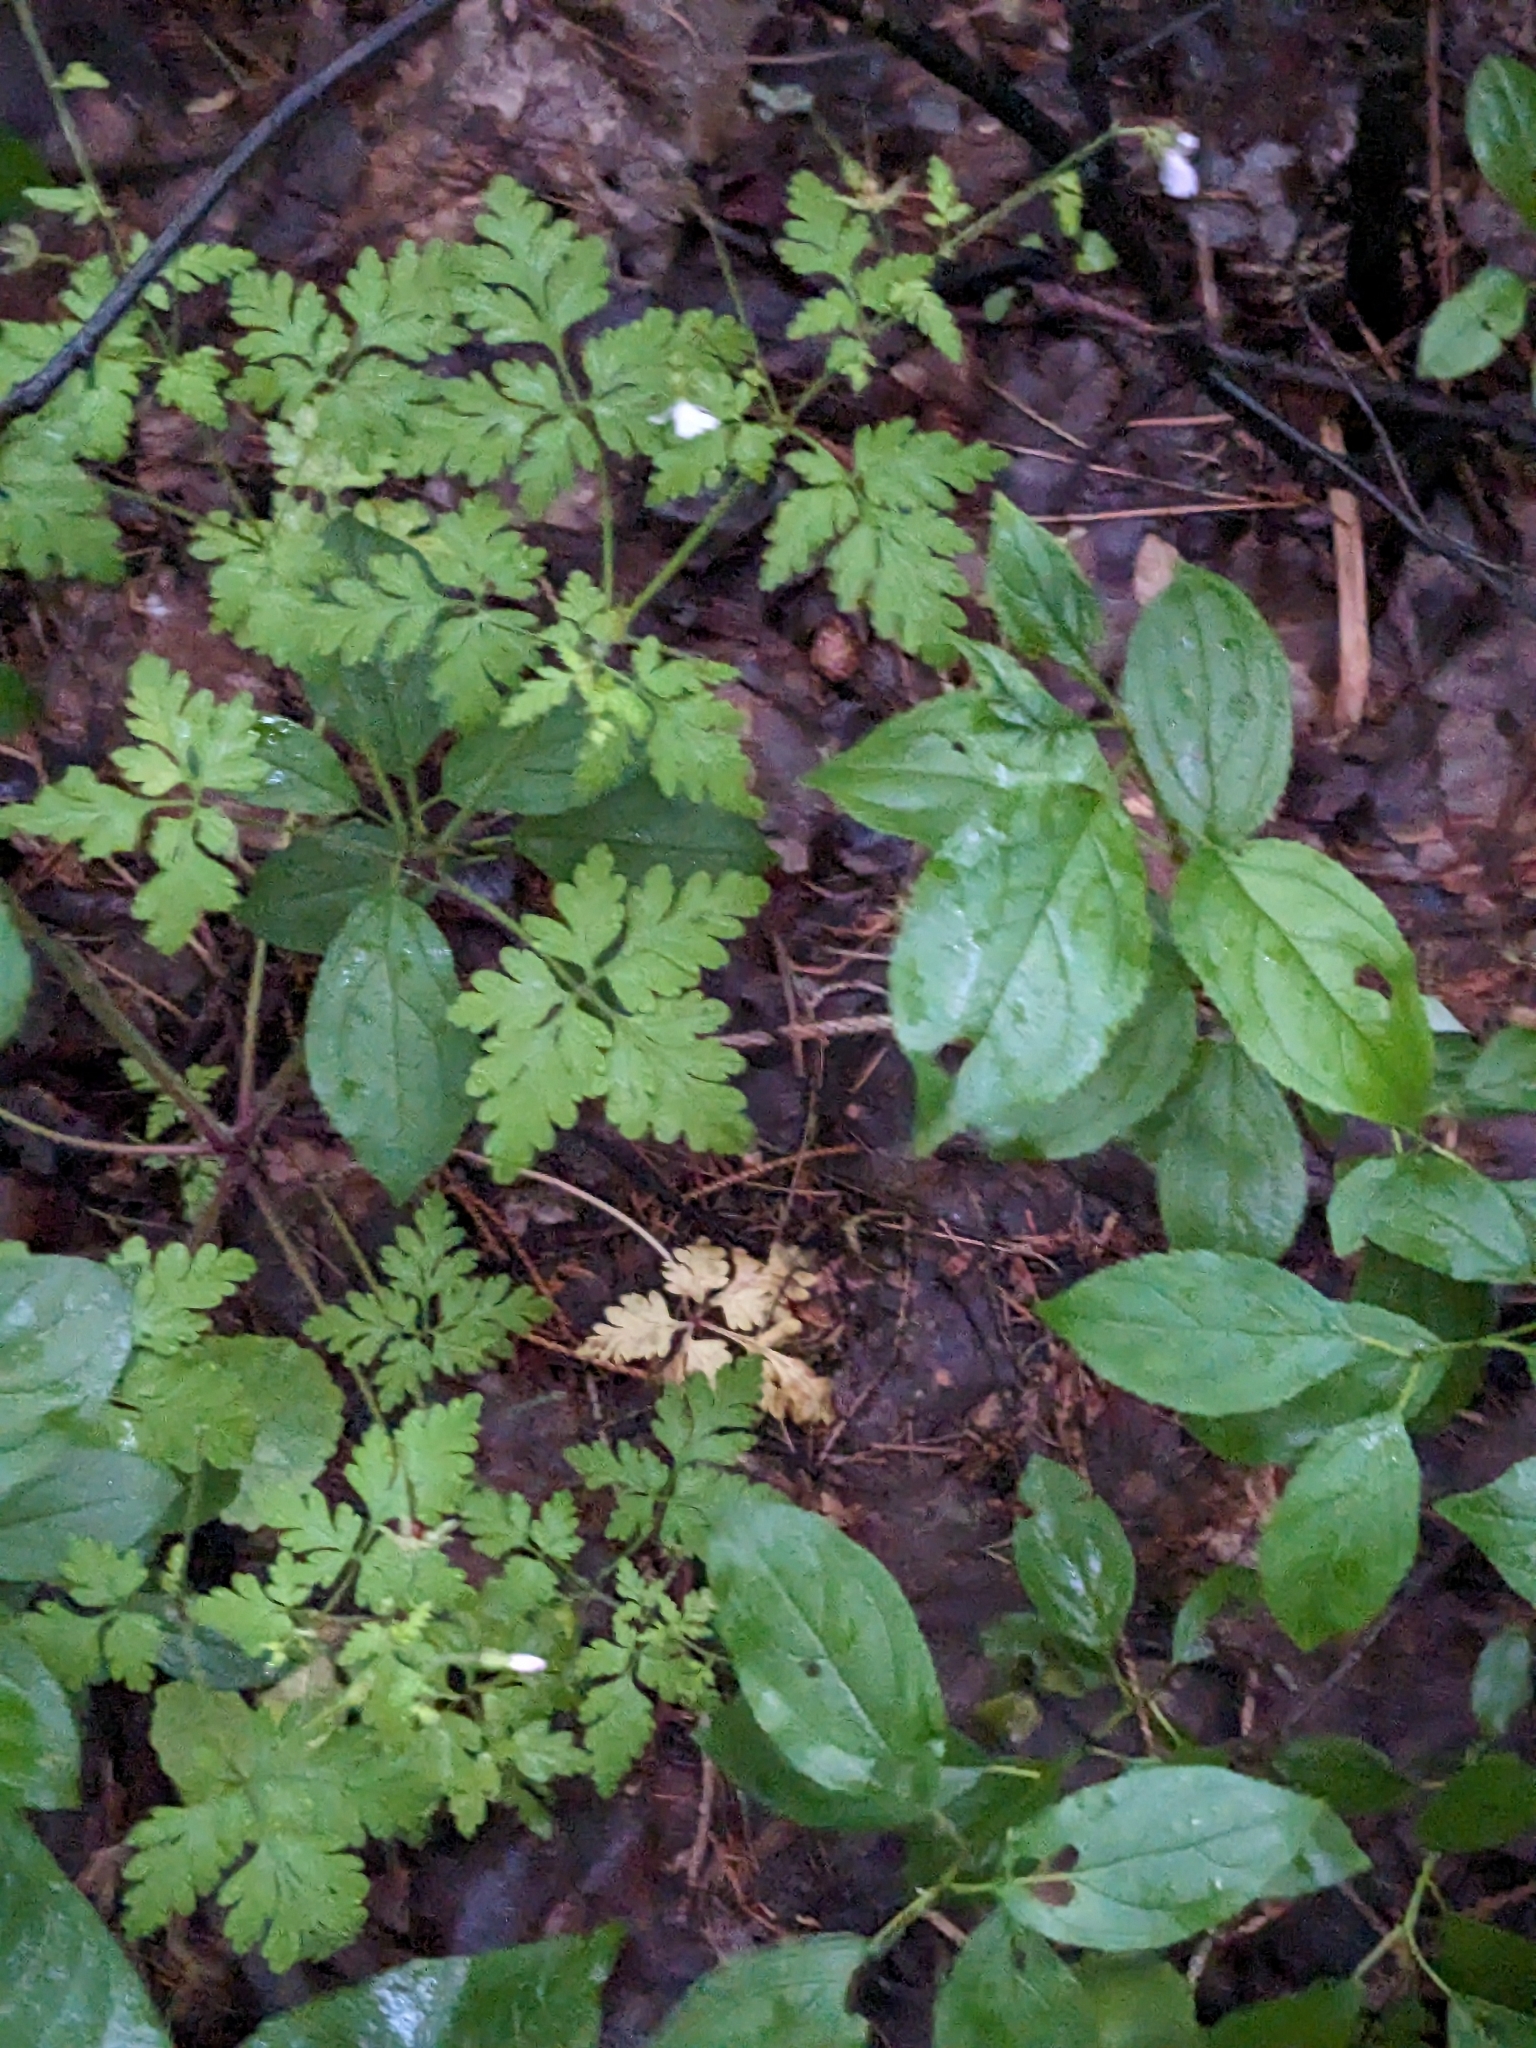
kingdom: Plantae
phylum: Tracheophyta
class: Magnoliopsida
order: Geraniales
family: Geraniaceae
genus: Geranium
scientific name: Geranium robertianum
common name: Herb-robert
